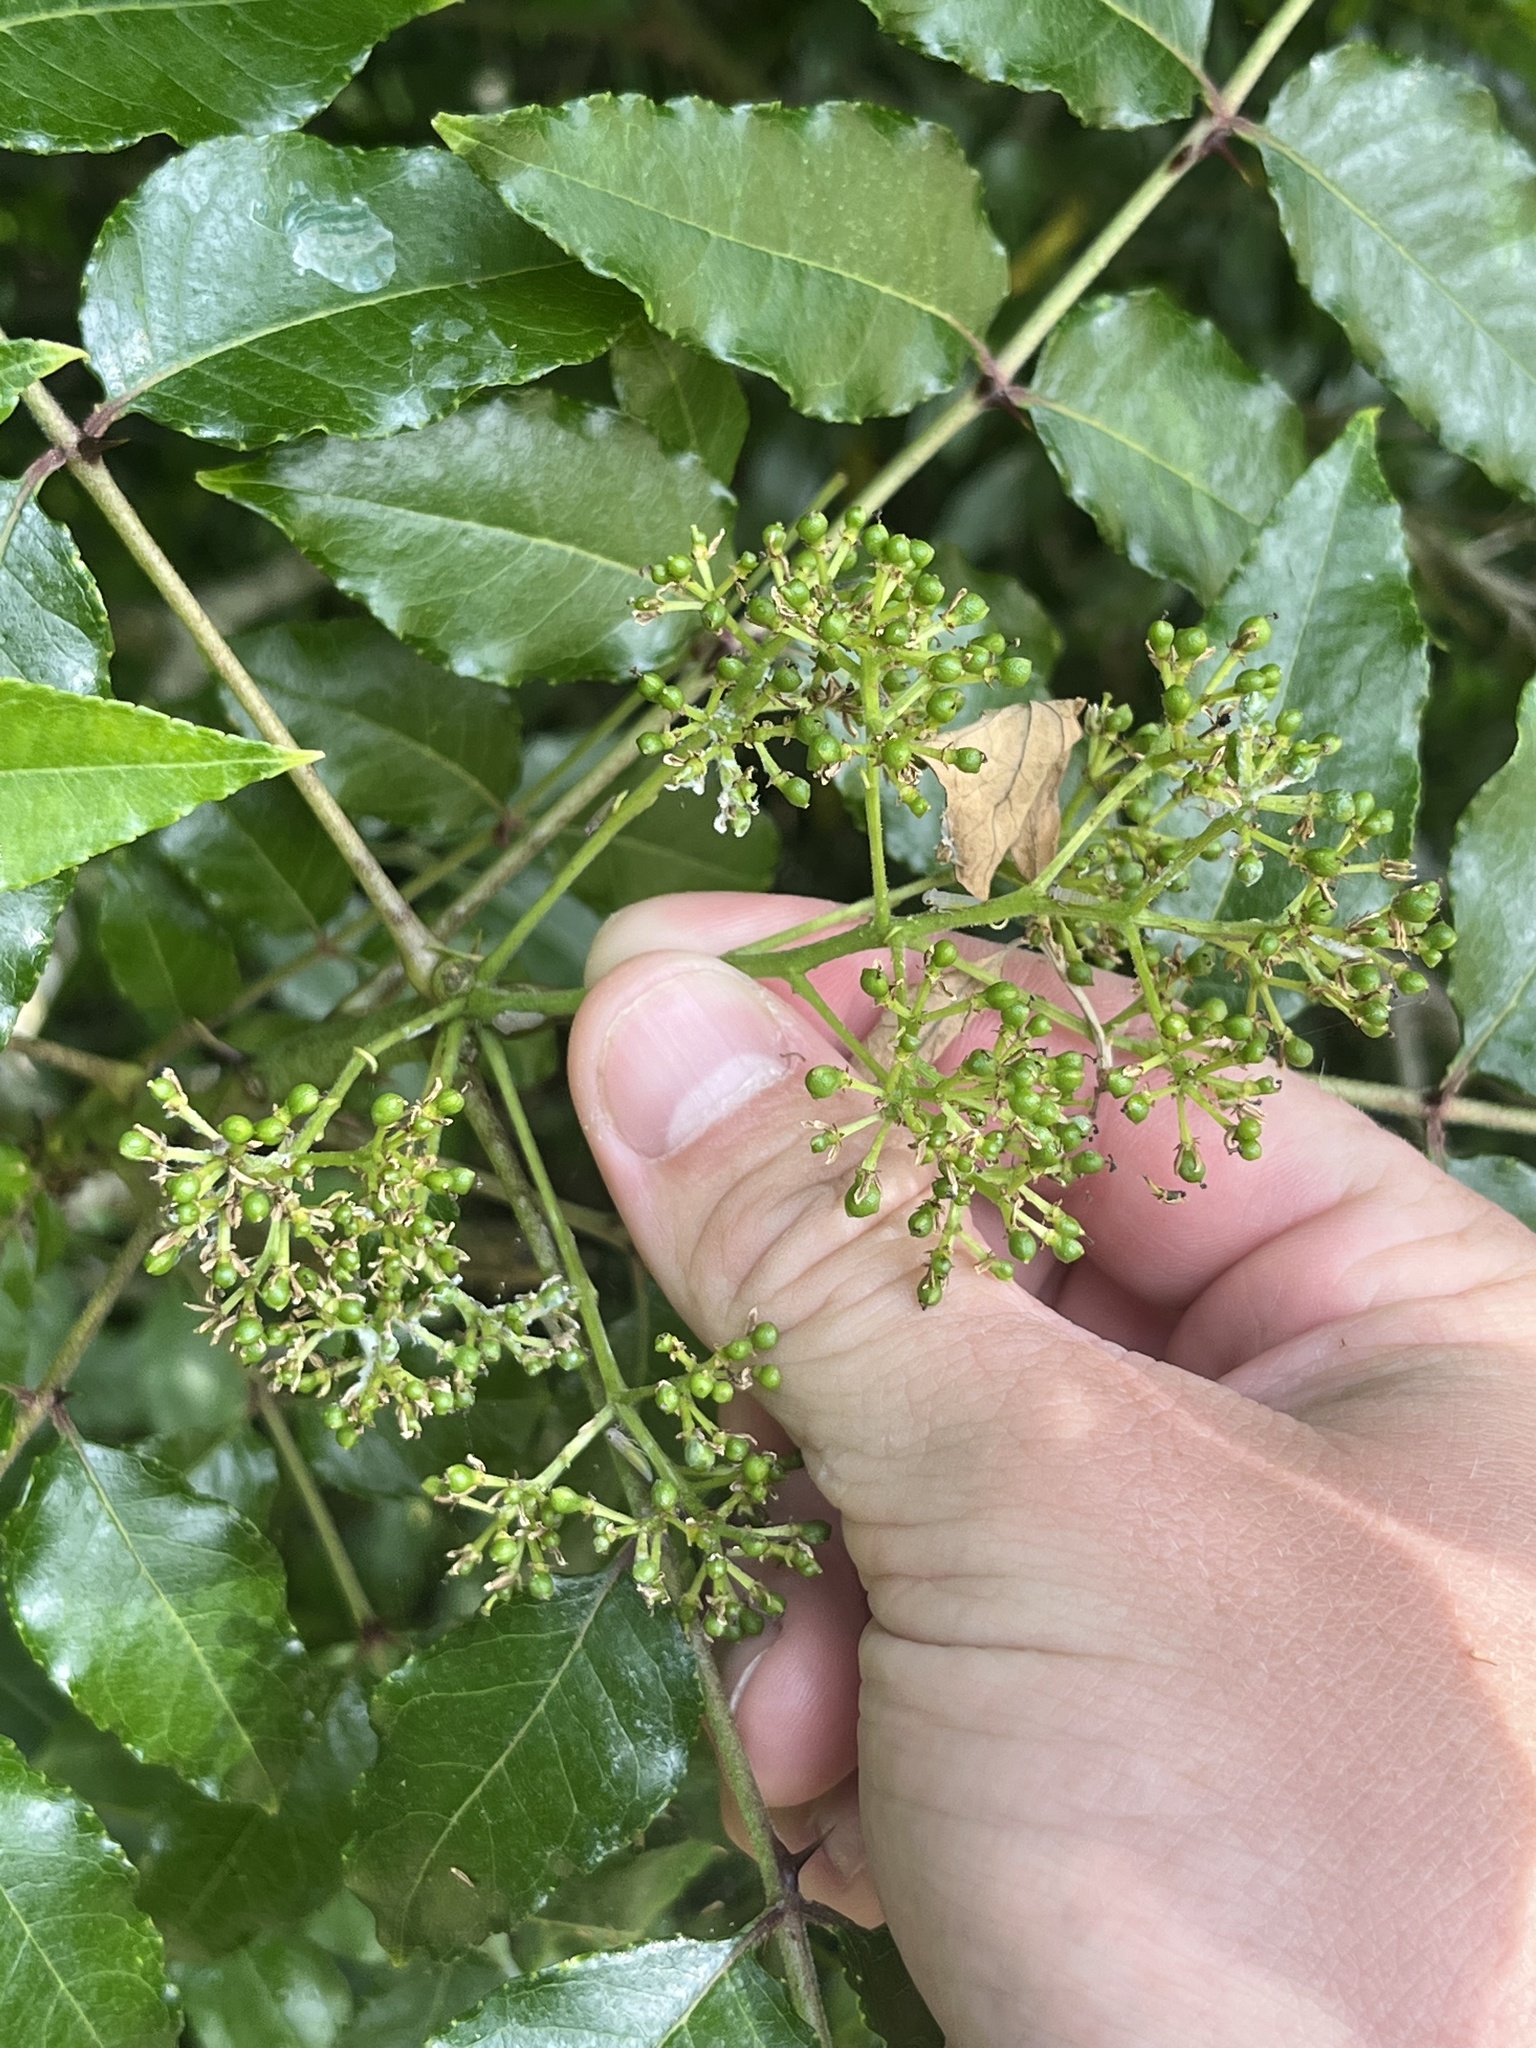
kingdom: Plantae
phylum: Tracheophyta
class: Magnoliopsida
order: Sapindales
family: Rutaceae
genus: Zanthoxylum
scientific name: Zanthoxylum clava-herculis
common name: Hercules'-club
